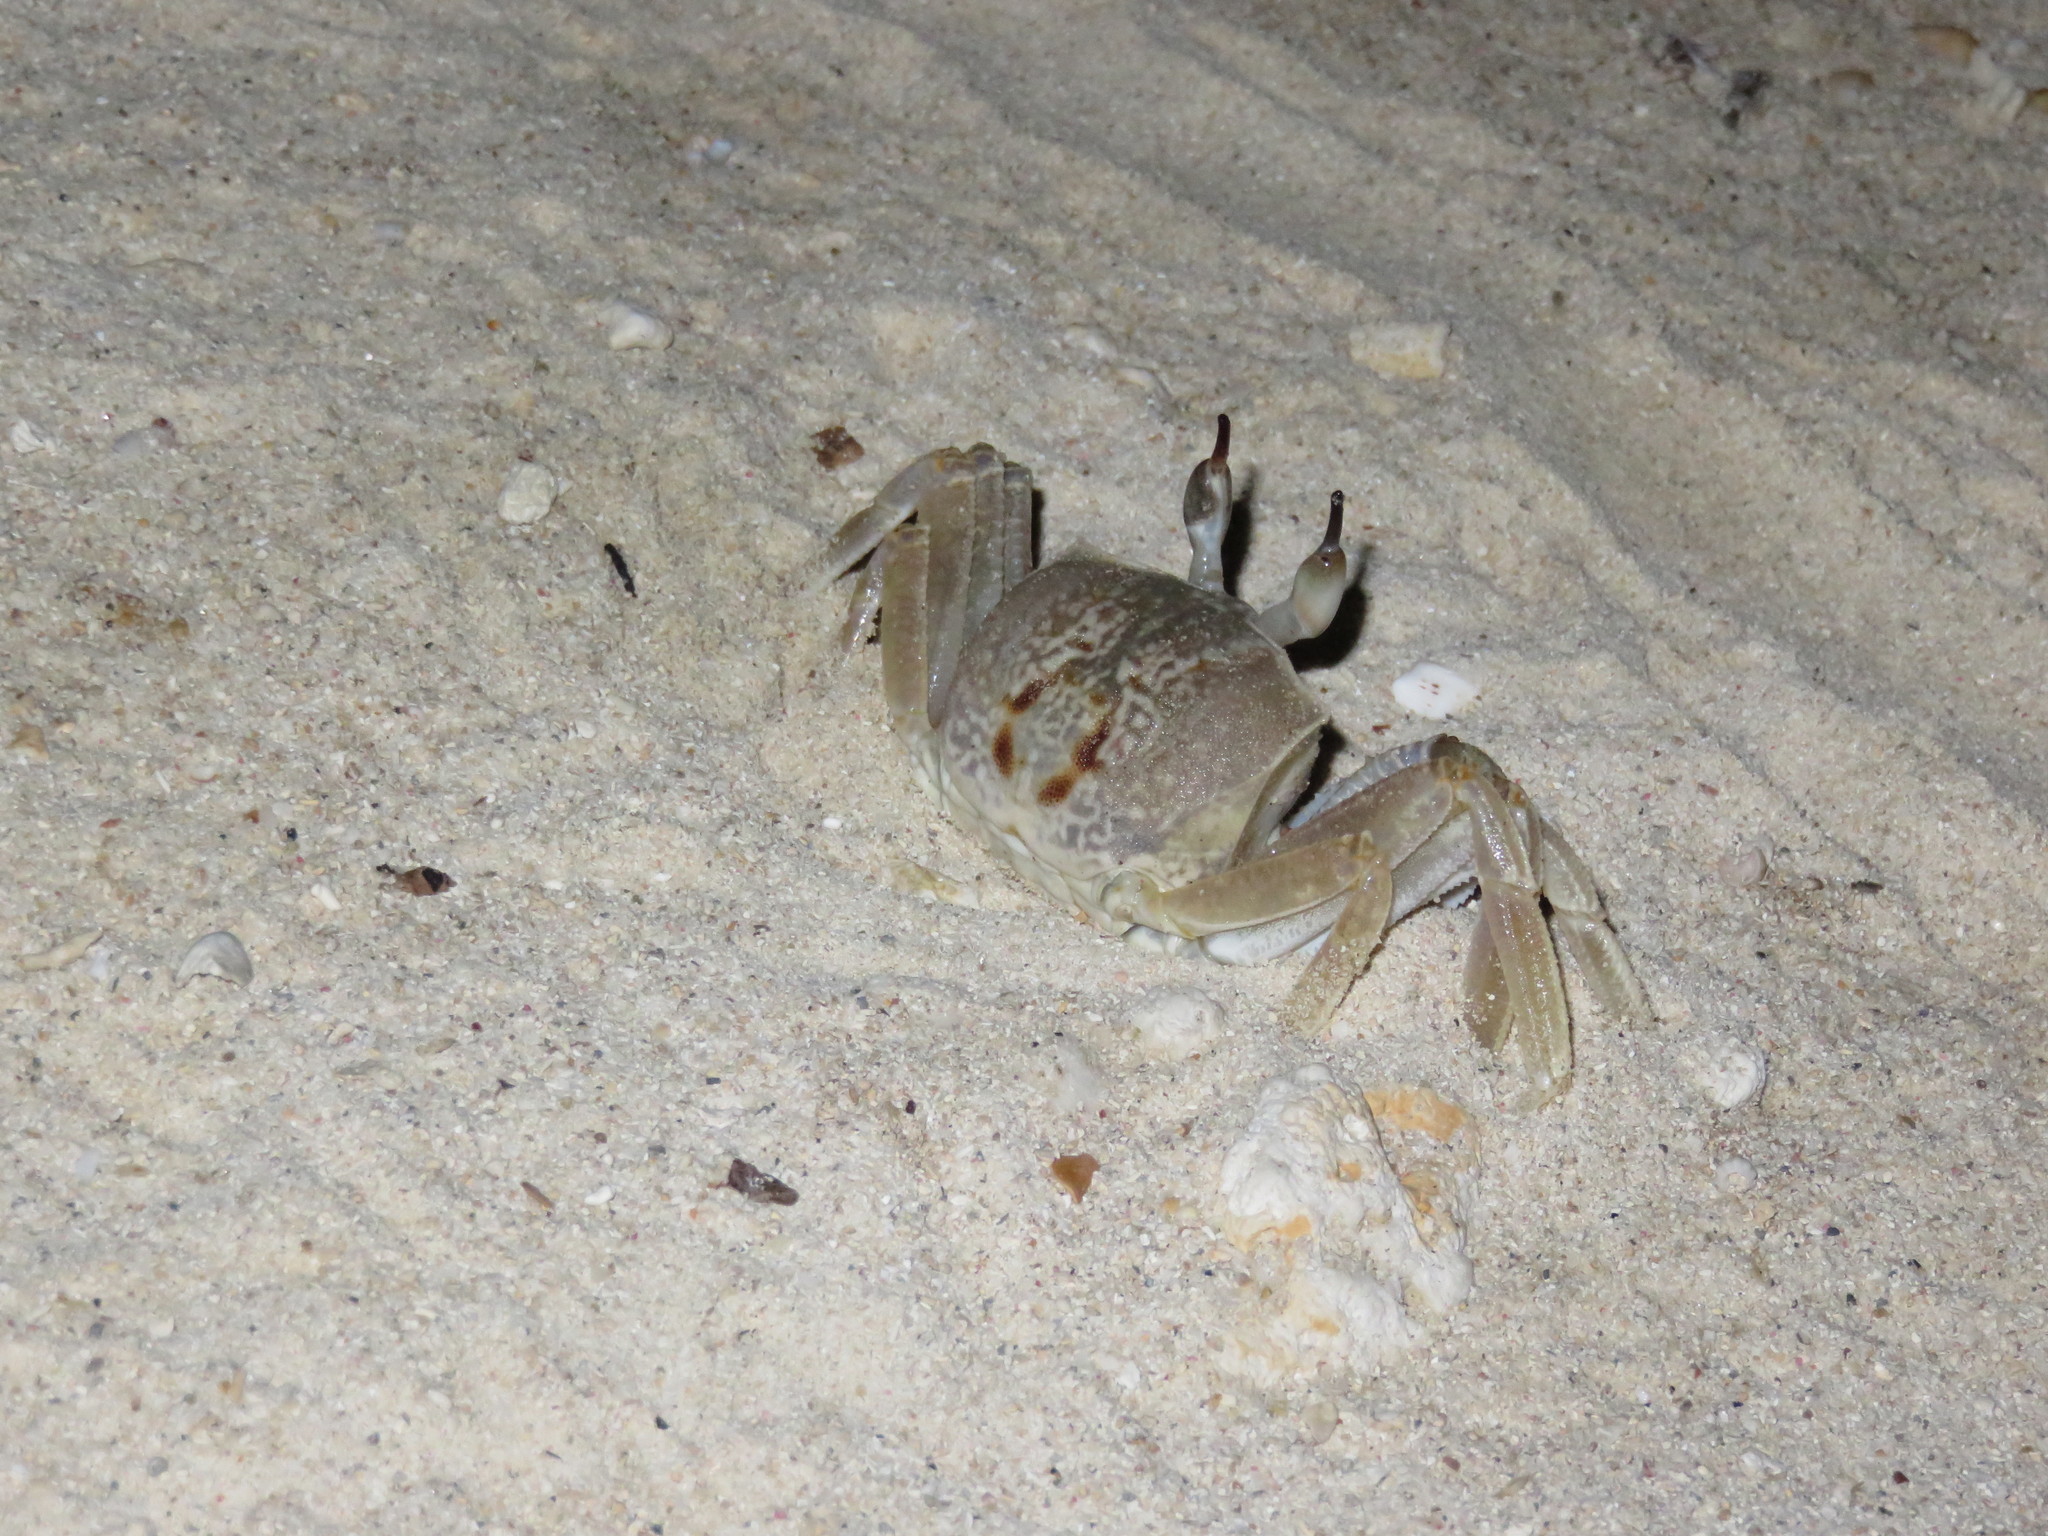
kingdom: Animalia
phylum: Arthropoda
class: Malacostraca
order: Decapoda
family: Ocypodidae
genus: Ocypode
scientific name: Ocypode ceratophthalmus
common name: Indo-pacific ghost crab
